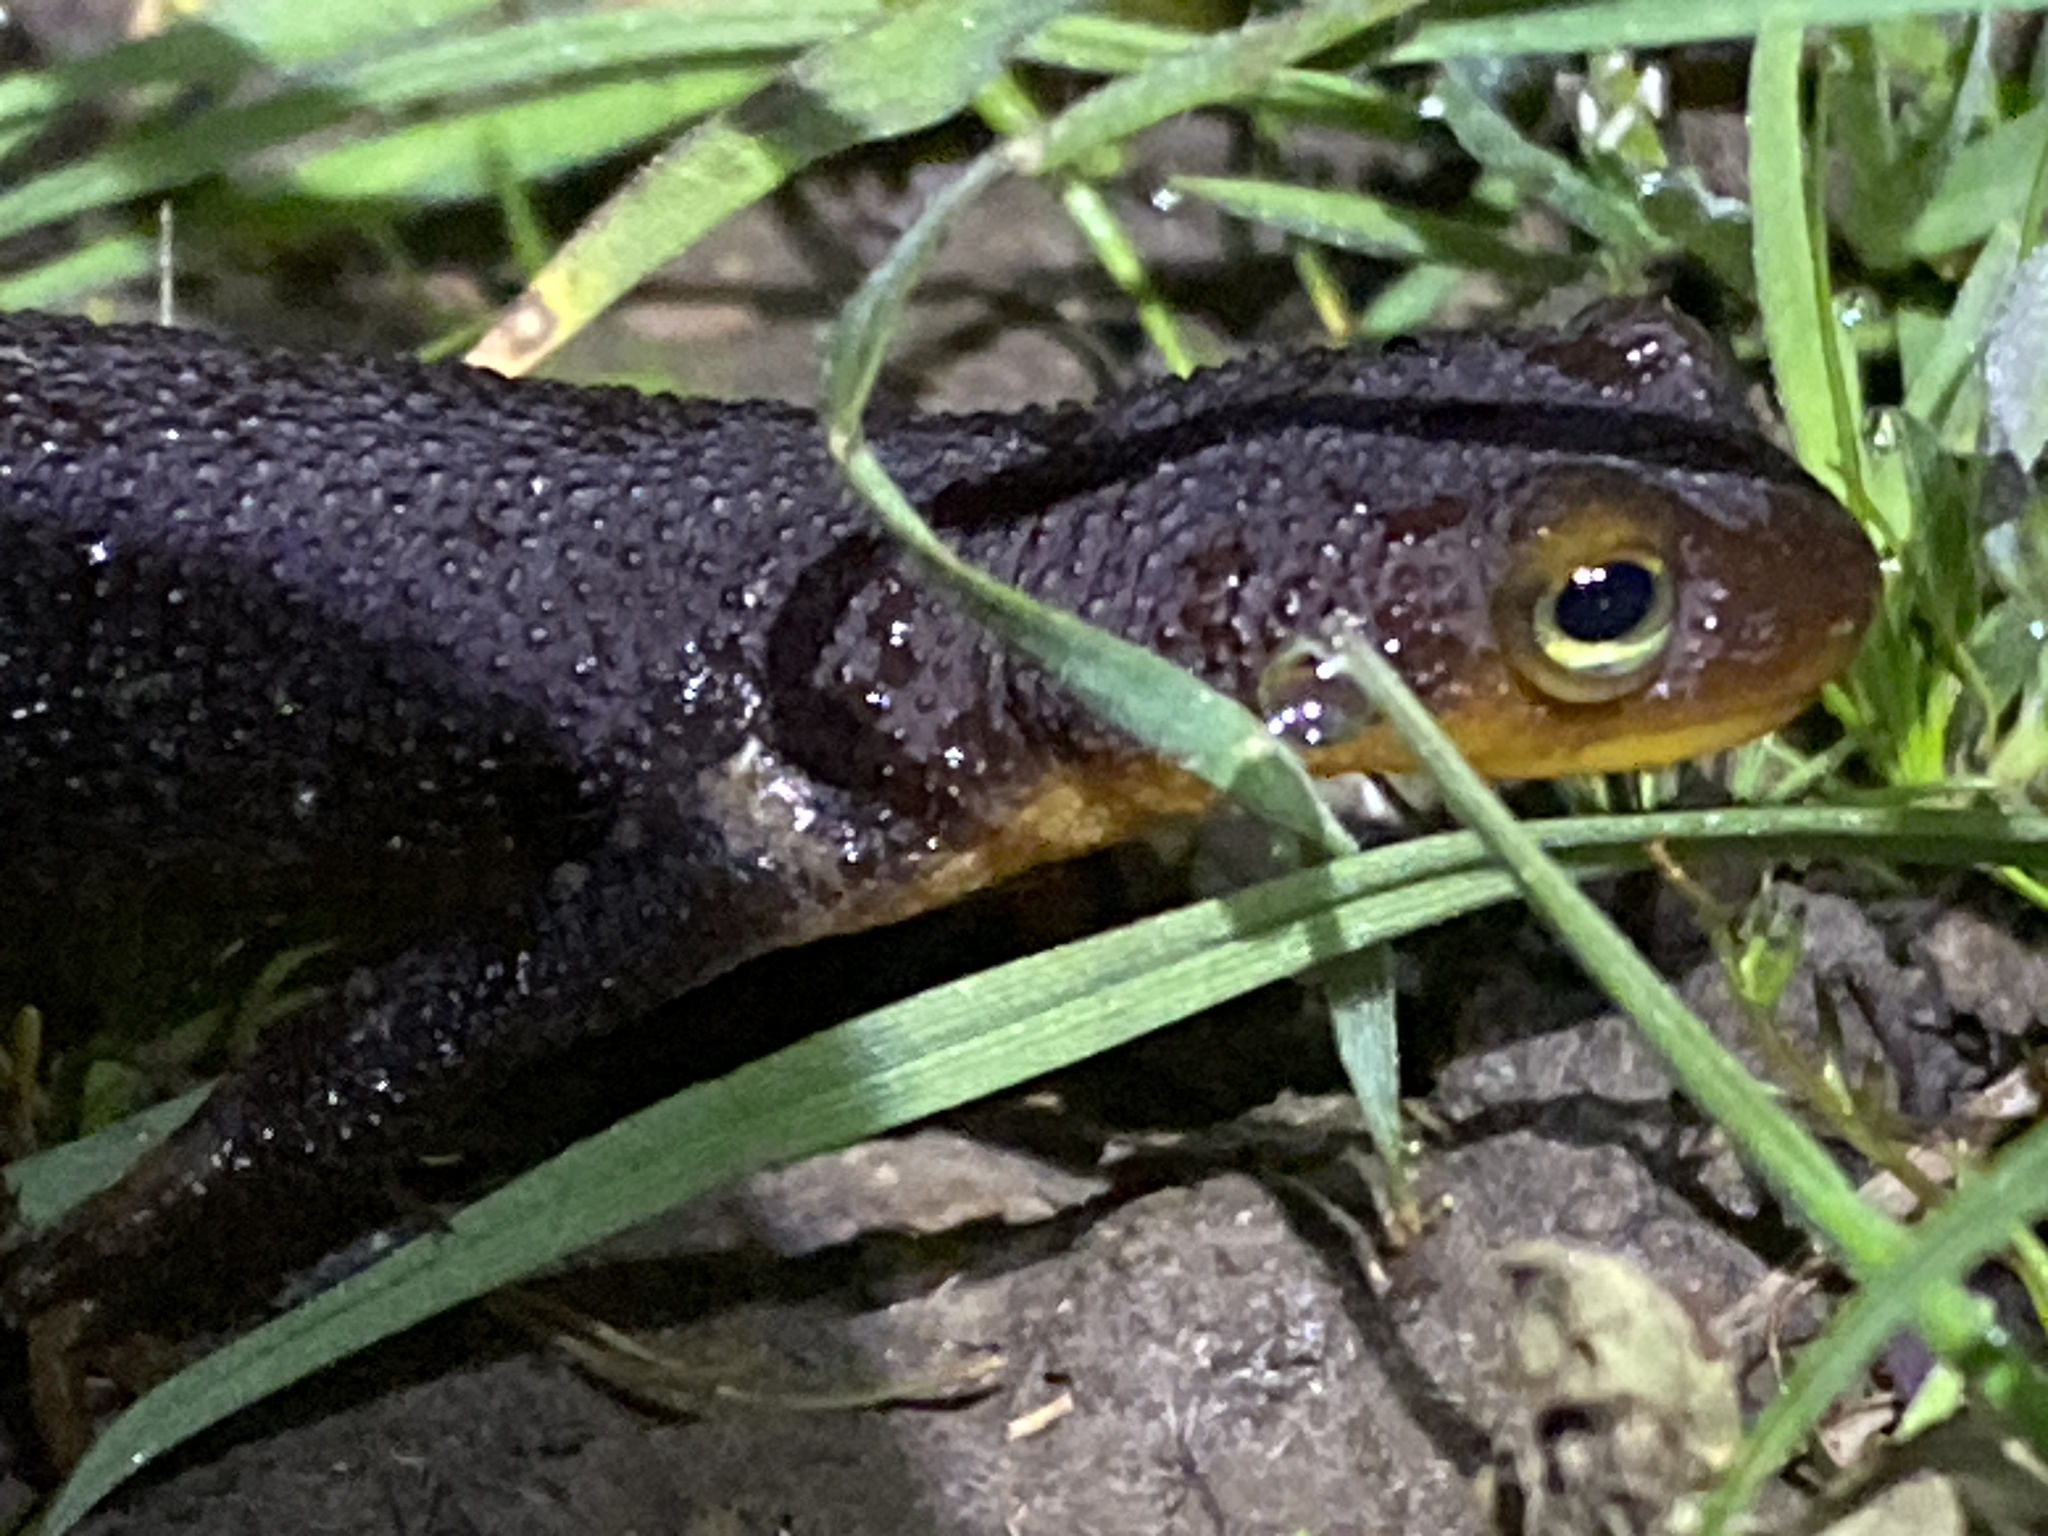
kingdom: Animalia
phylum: Chordata
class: Amphibia
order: Caudata
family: Salamandridae
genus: Taricha
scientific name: Taricha torosa
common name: California newt
